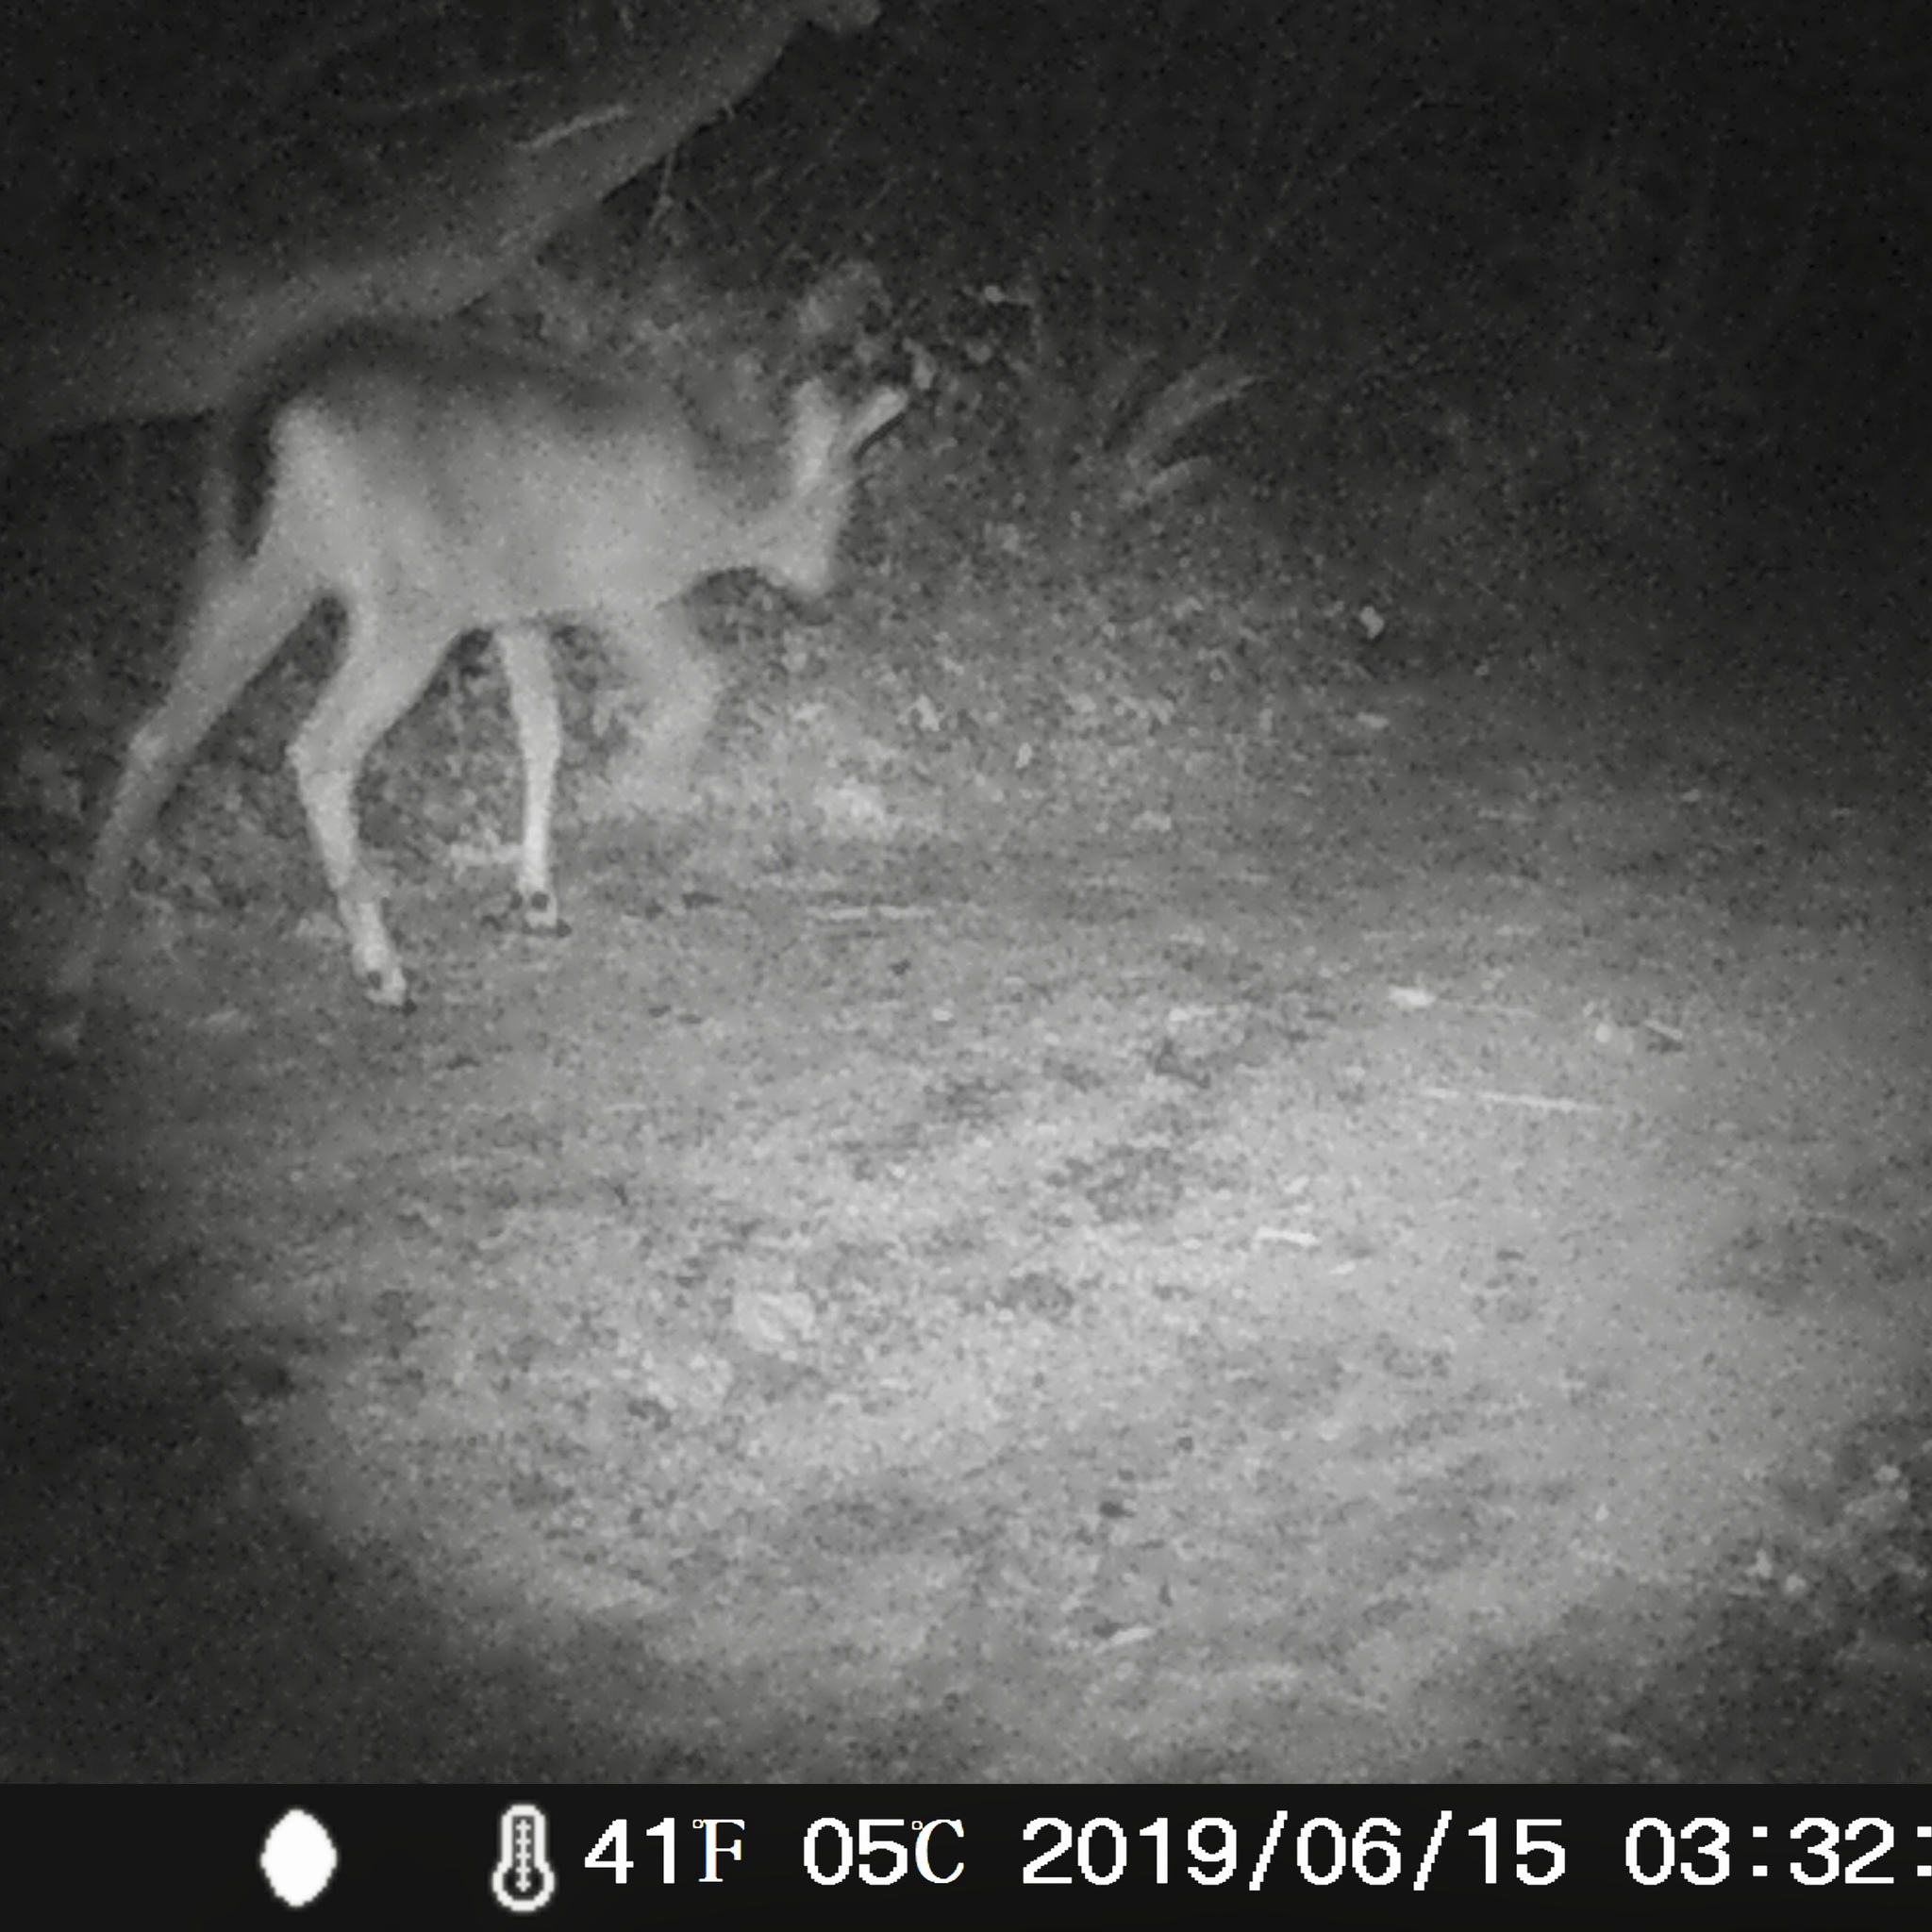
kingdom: Animalia
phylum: Chordata
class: Mammalia
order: Artiodactyla
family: Cervidae
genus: Odocoileus
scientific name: Odocoileus hemionus
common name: Mule deer
